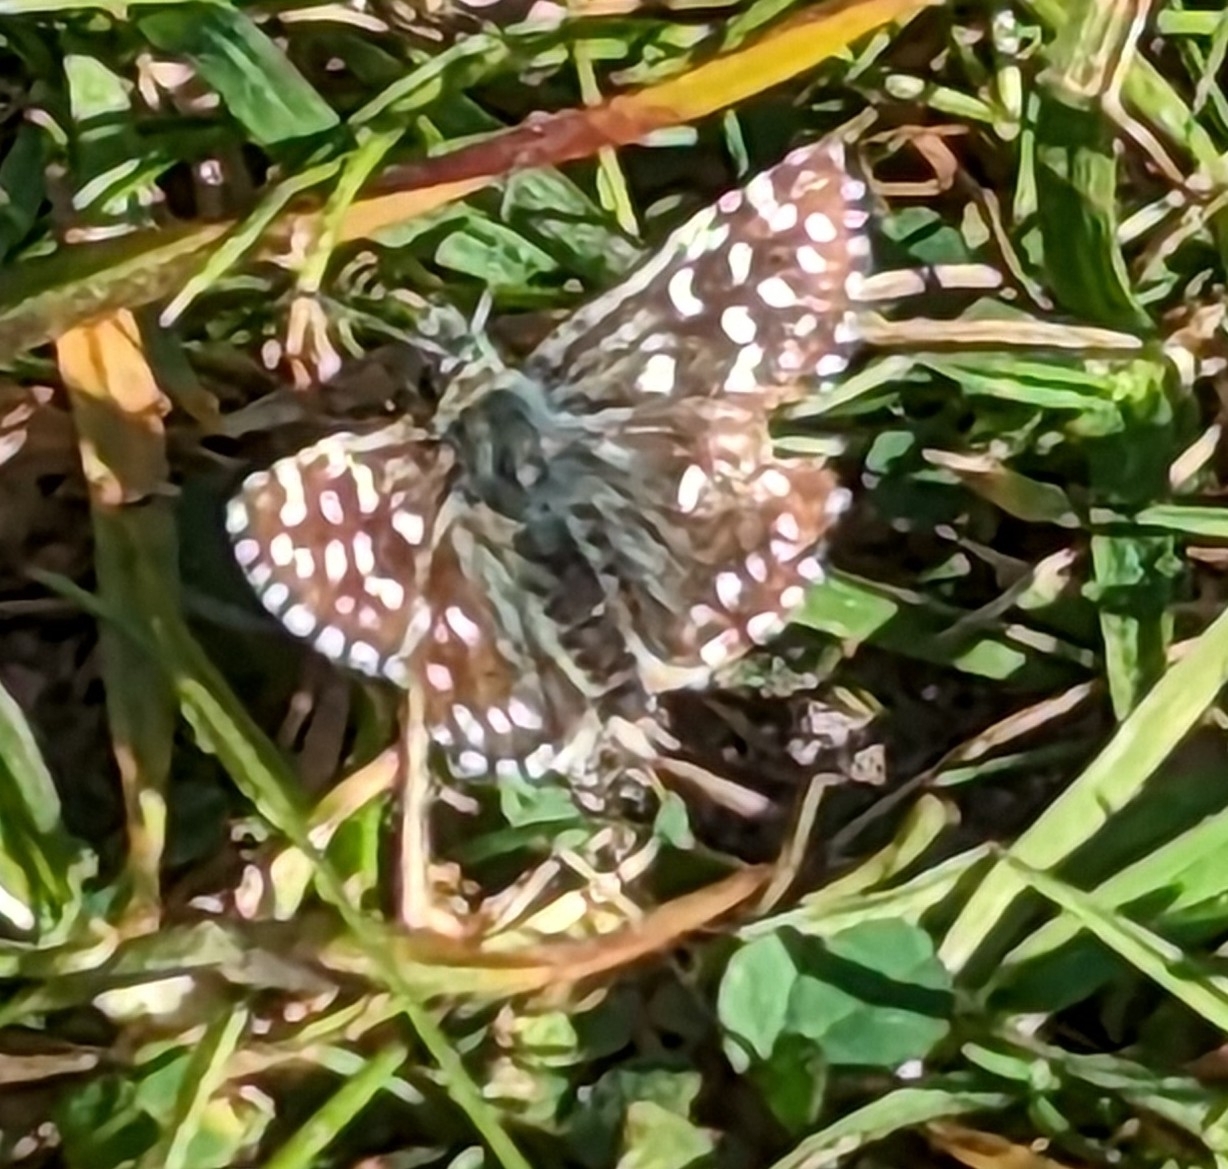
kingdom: Animalia
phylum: Arthropoda
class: Insecta
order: Lepidoptera
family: Hesperiidae
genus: Pyrgus
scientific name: Pyrgus malvae
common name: Grizzled skipper
